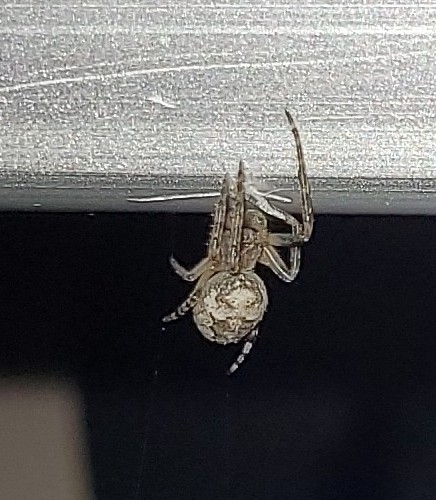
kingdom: Animalia
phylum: Arthropoda
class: Arachnida
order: Araneae
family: Araneidae
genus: Larinioides
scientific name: Larinioides sclopetarius
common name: Bridge orbweaver
